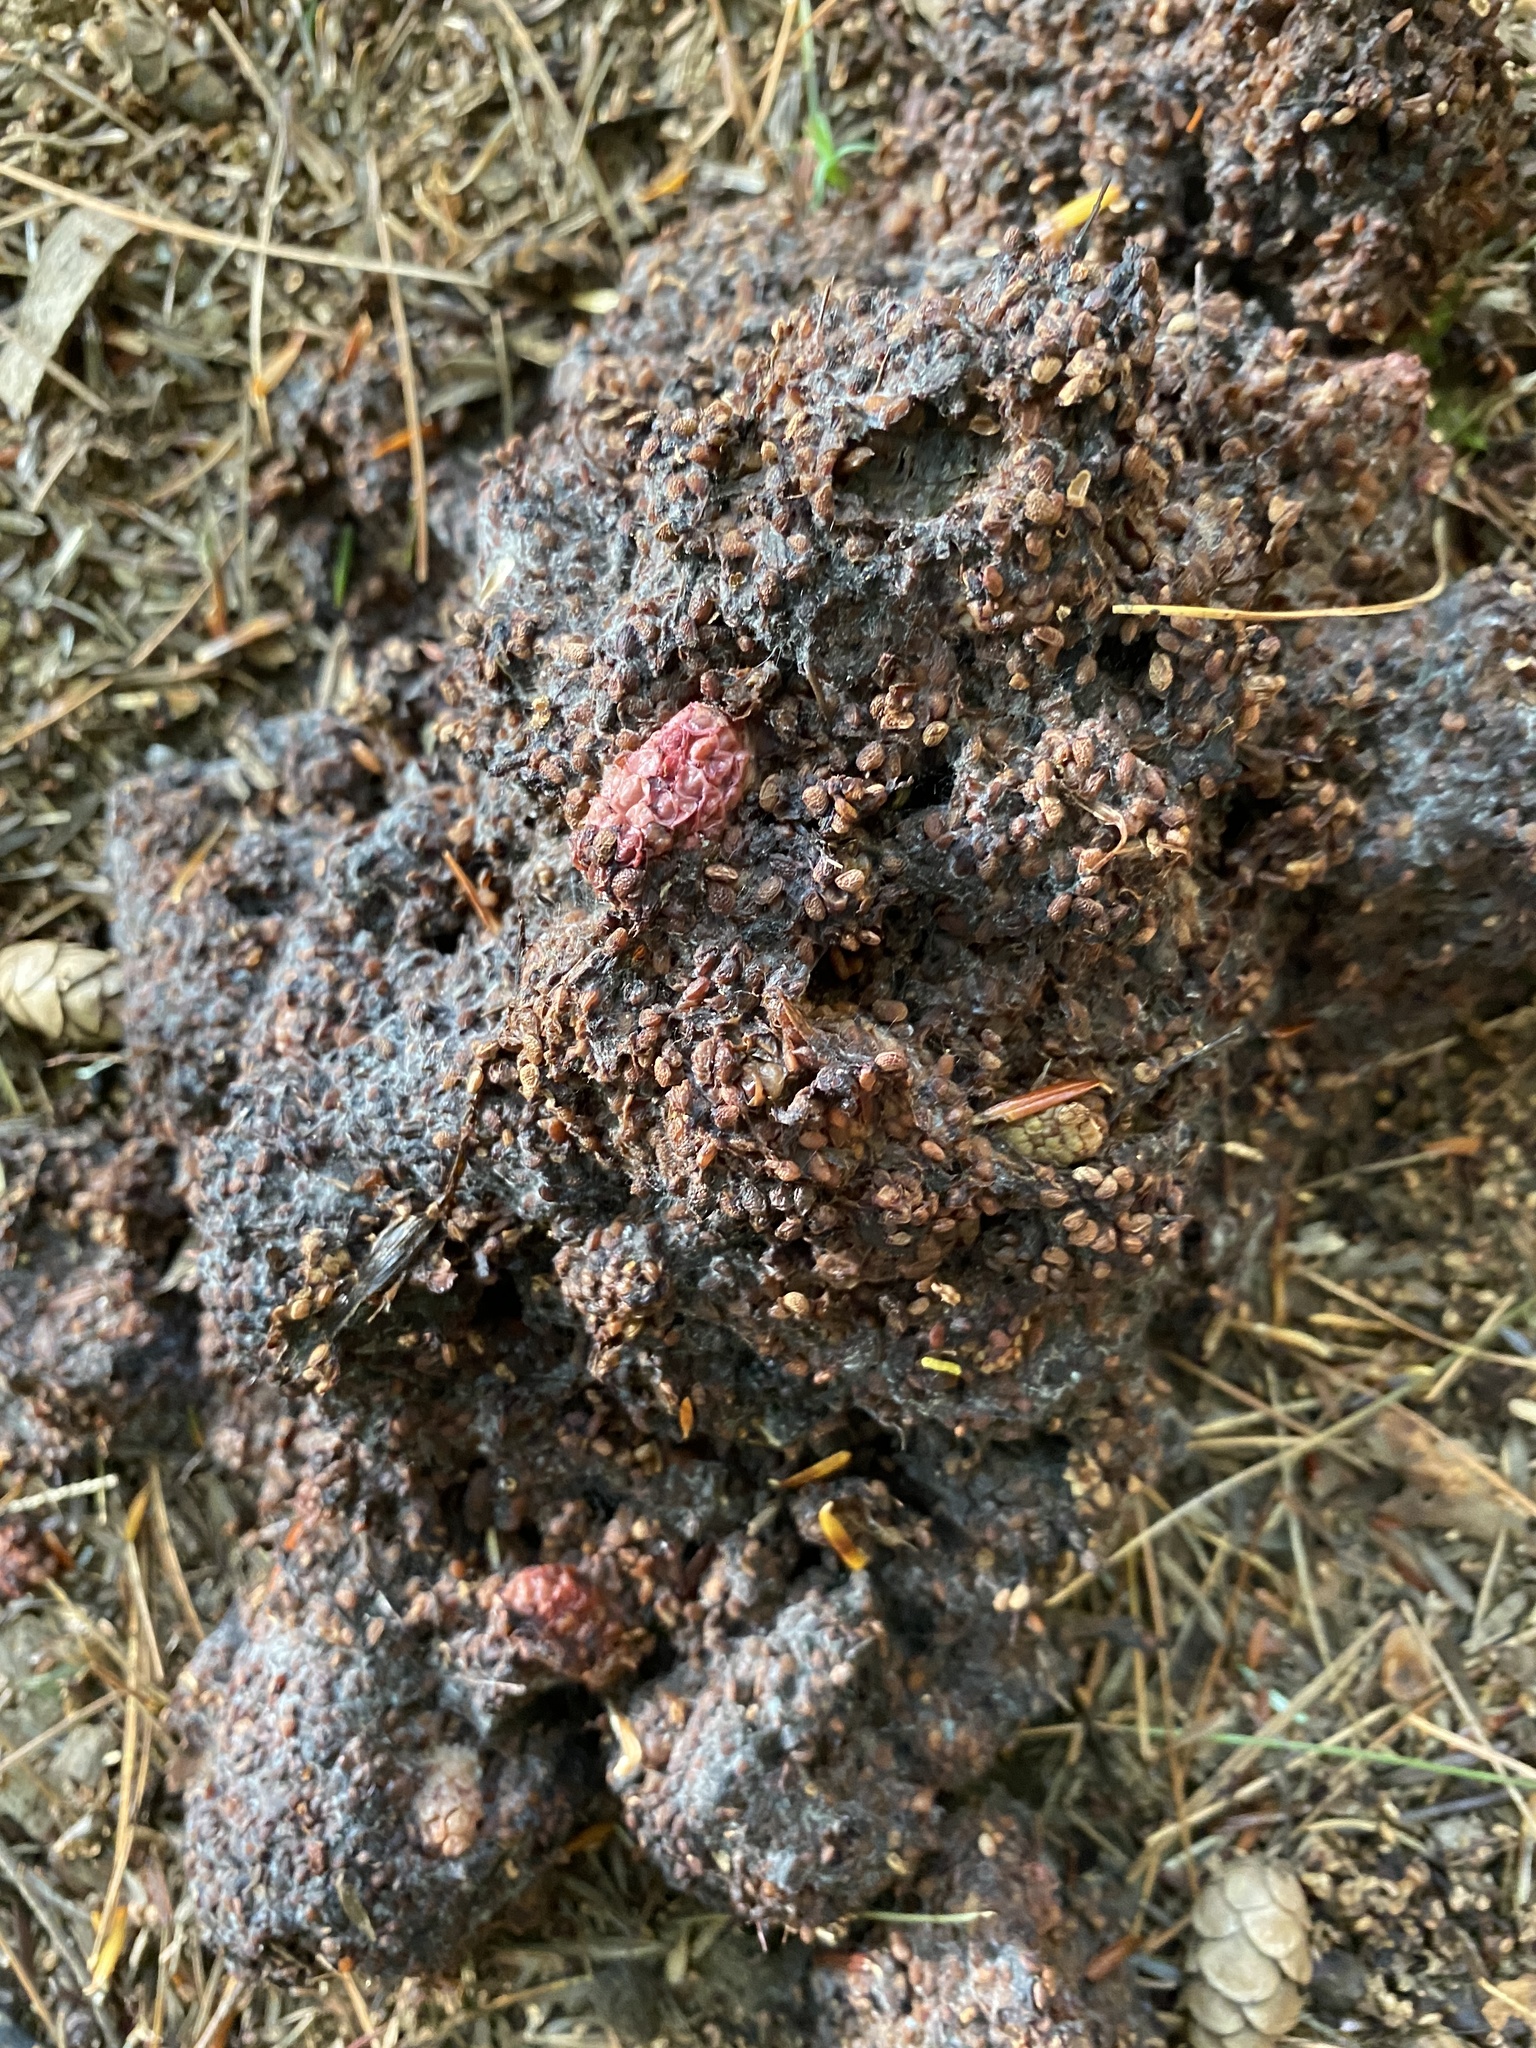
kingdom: Animalia
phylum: Chordata
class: Mammalia
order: Carnivora
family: Ursidae
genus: Ursus
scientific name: Ursus americanus
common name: American black bear
